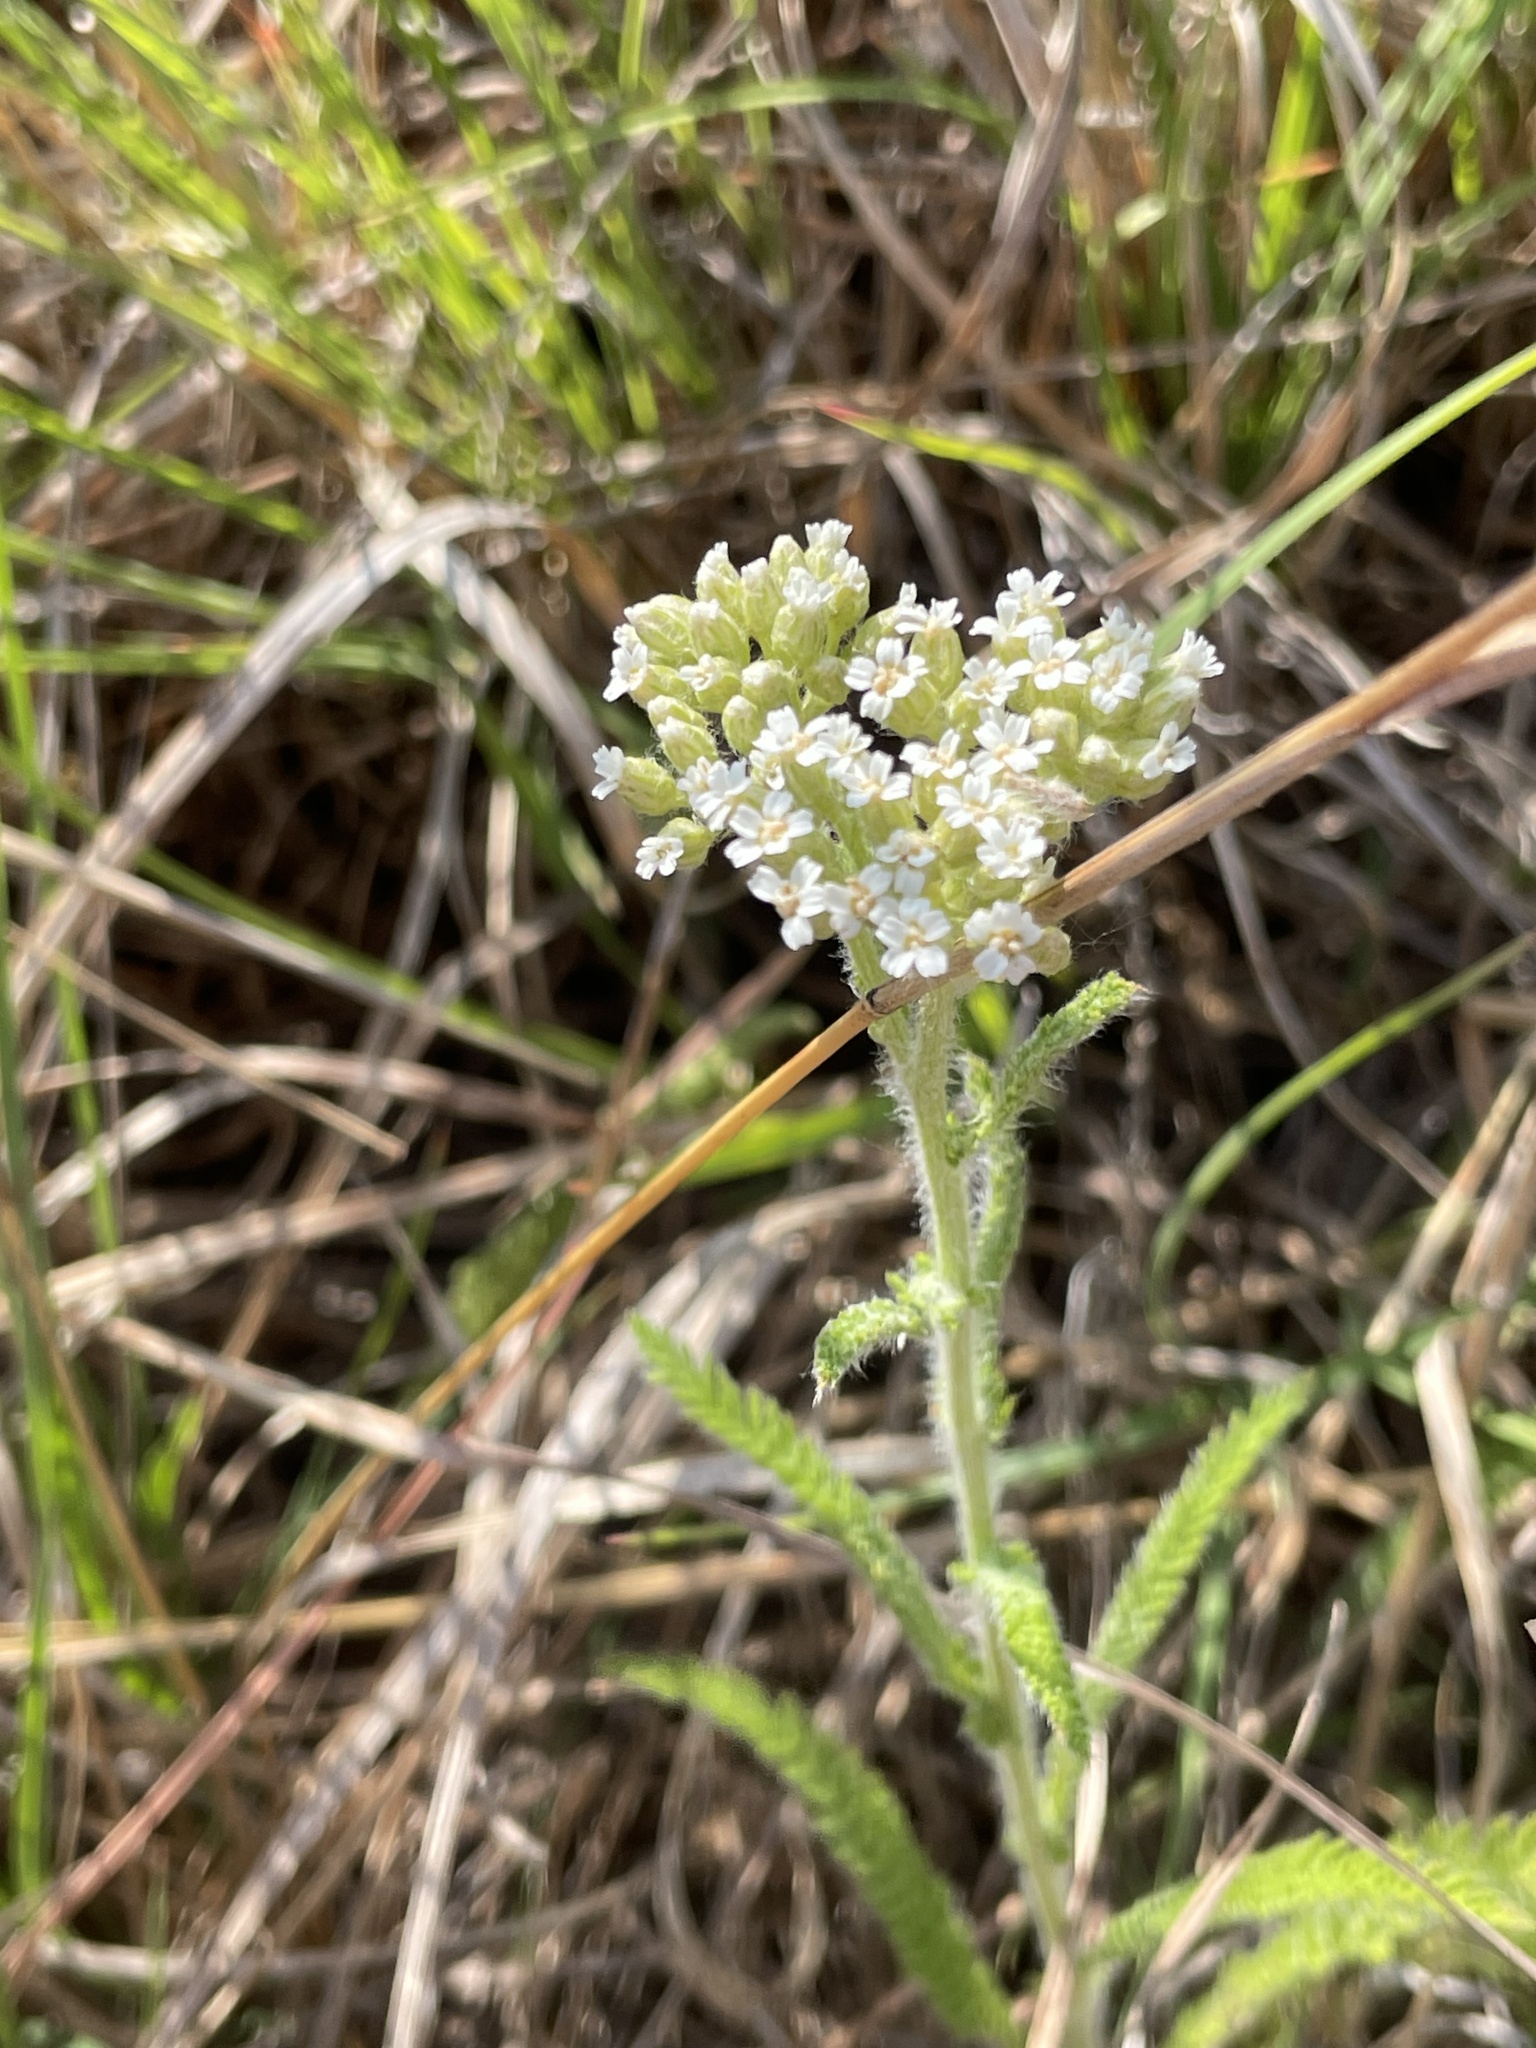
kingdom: Plantae
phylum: Tracheophyta
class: Magnoliopsida
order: Asterales
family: Asteraceae
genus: Achillea
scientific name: Achillea millefolium
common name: Yarrow
